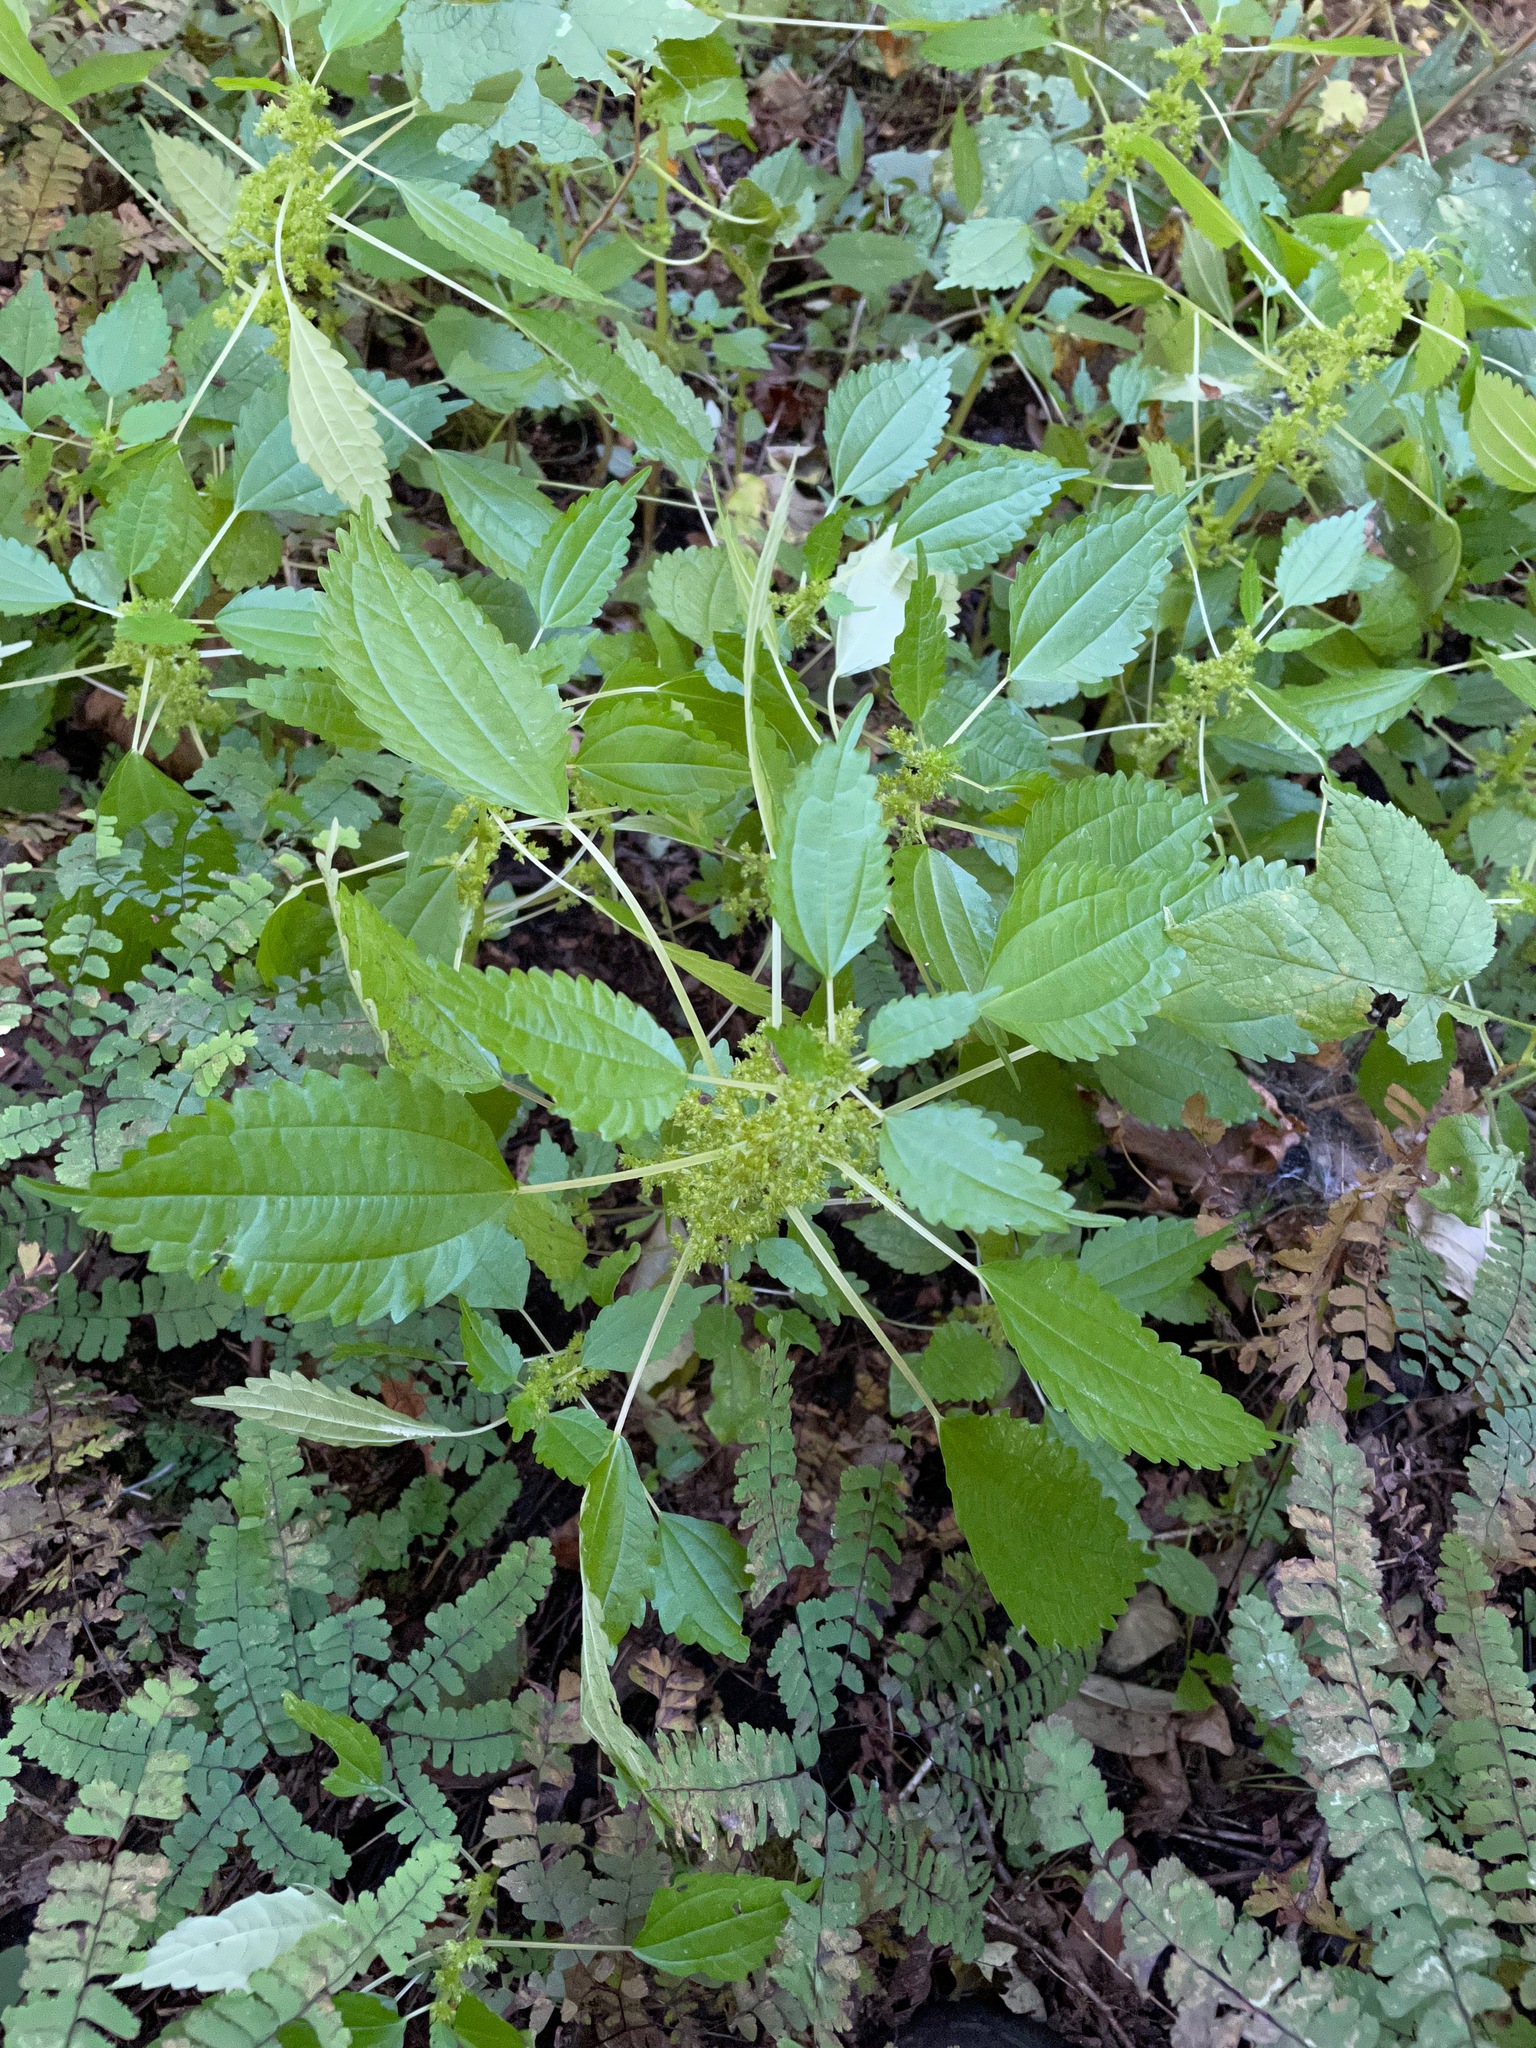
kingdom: Plantae
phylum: Tracheophyta
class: Magnoliopsida
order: Rosales
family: Urticaceae
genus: Pilea
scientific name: Pilea pumila
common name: Clearweed
